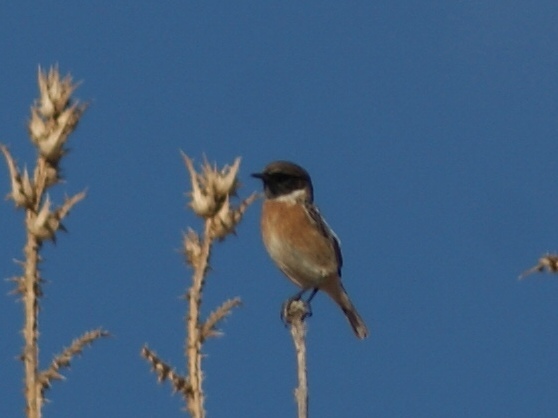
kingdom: Animalia
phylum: Chordata
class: Aves
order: Passeriformes
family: Muscicapidae
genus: Saxicola
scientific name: Saxicola rubicola
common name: European stonechat
